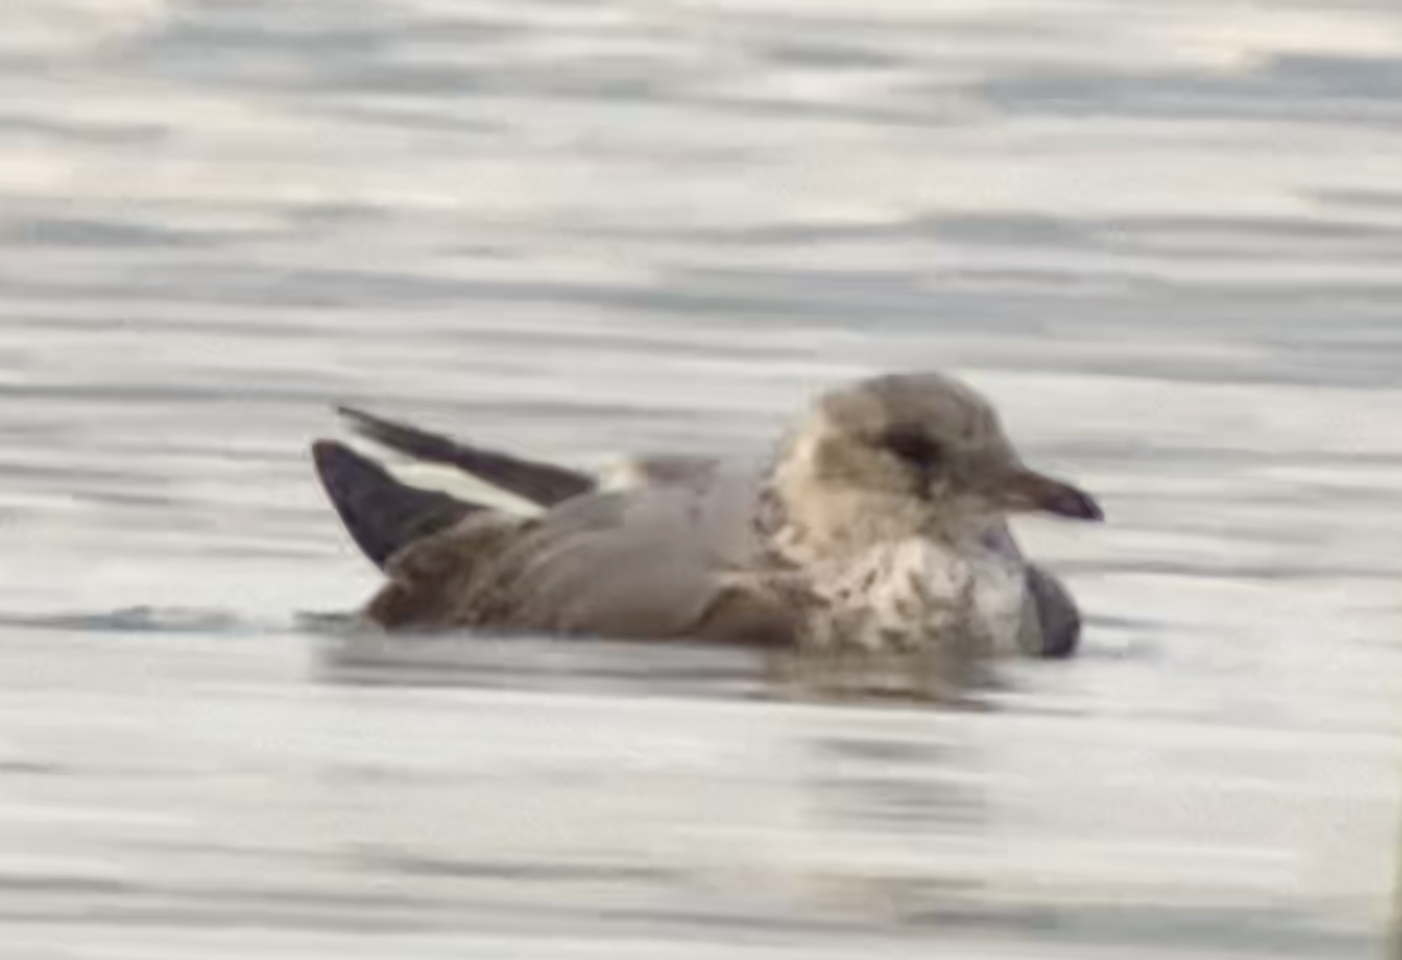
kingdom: Animalia
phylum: Chordata
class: Aves
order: Charadriiformes
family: Laridae
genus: Larus
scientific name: Larus canus
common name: Mew gull
